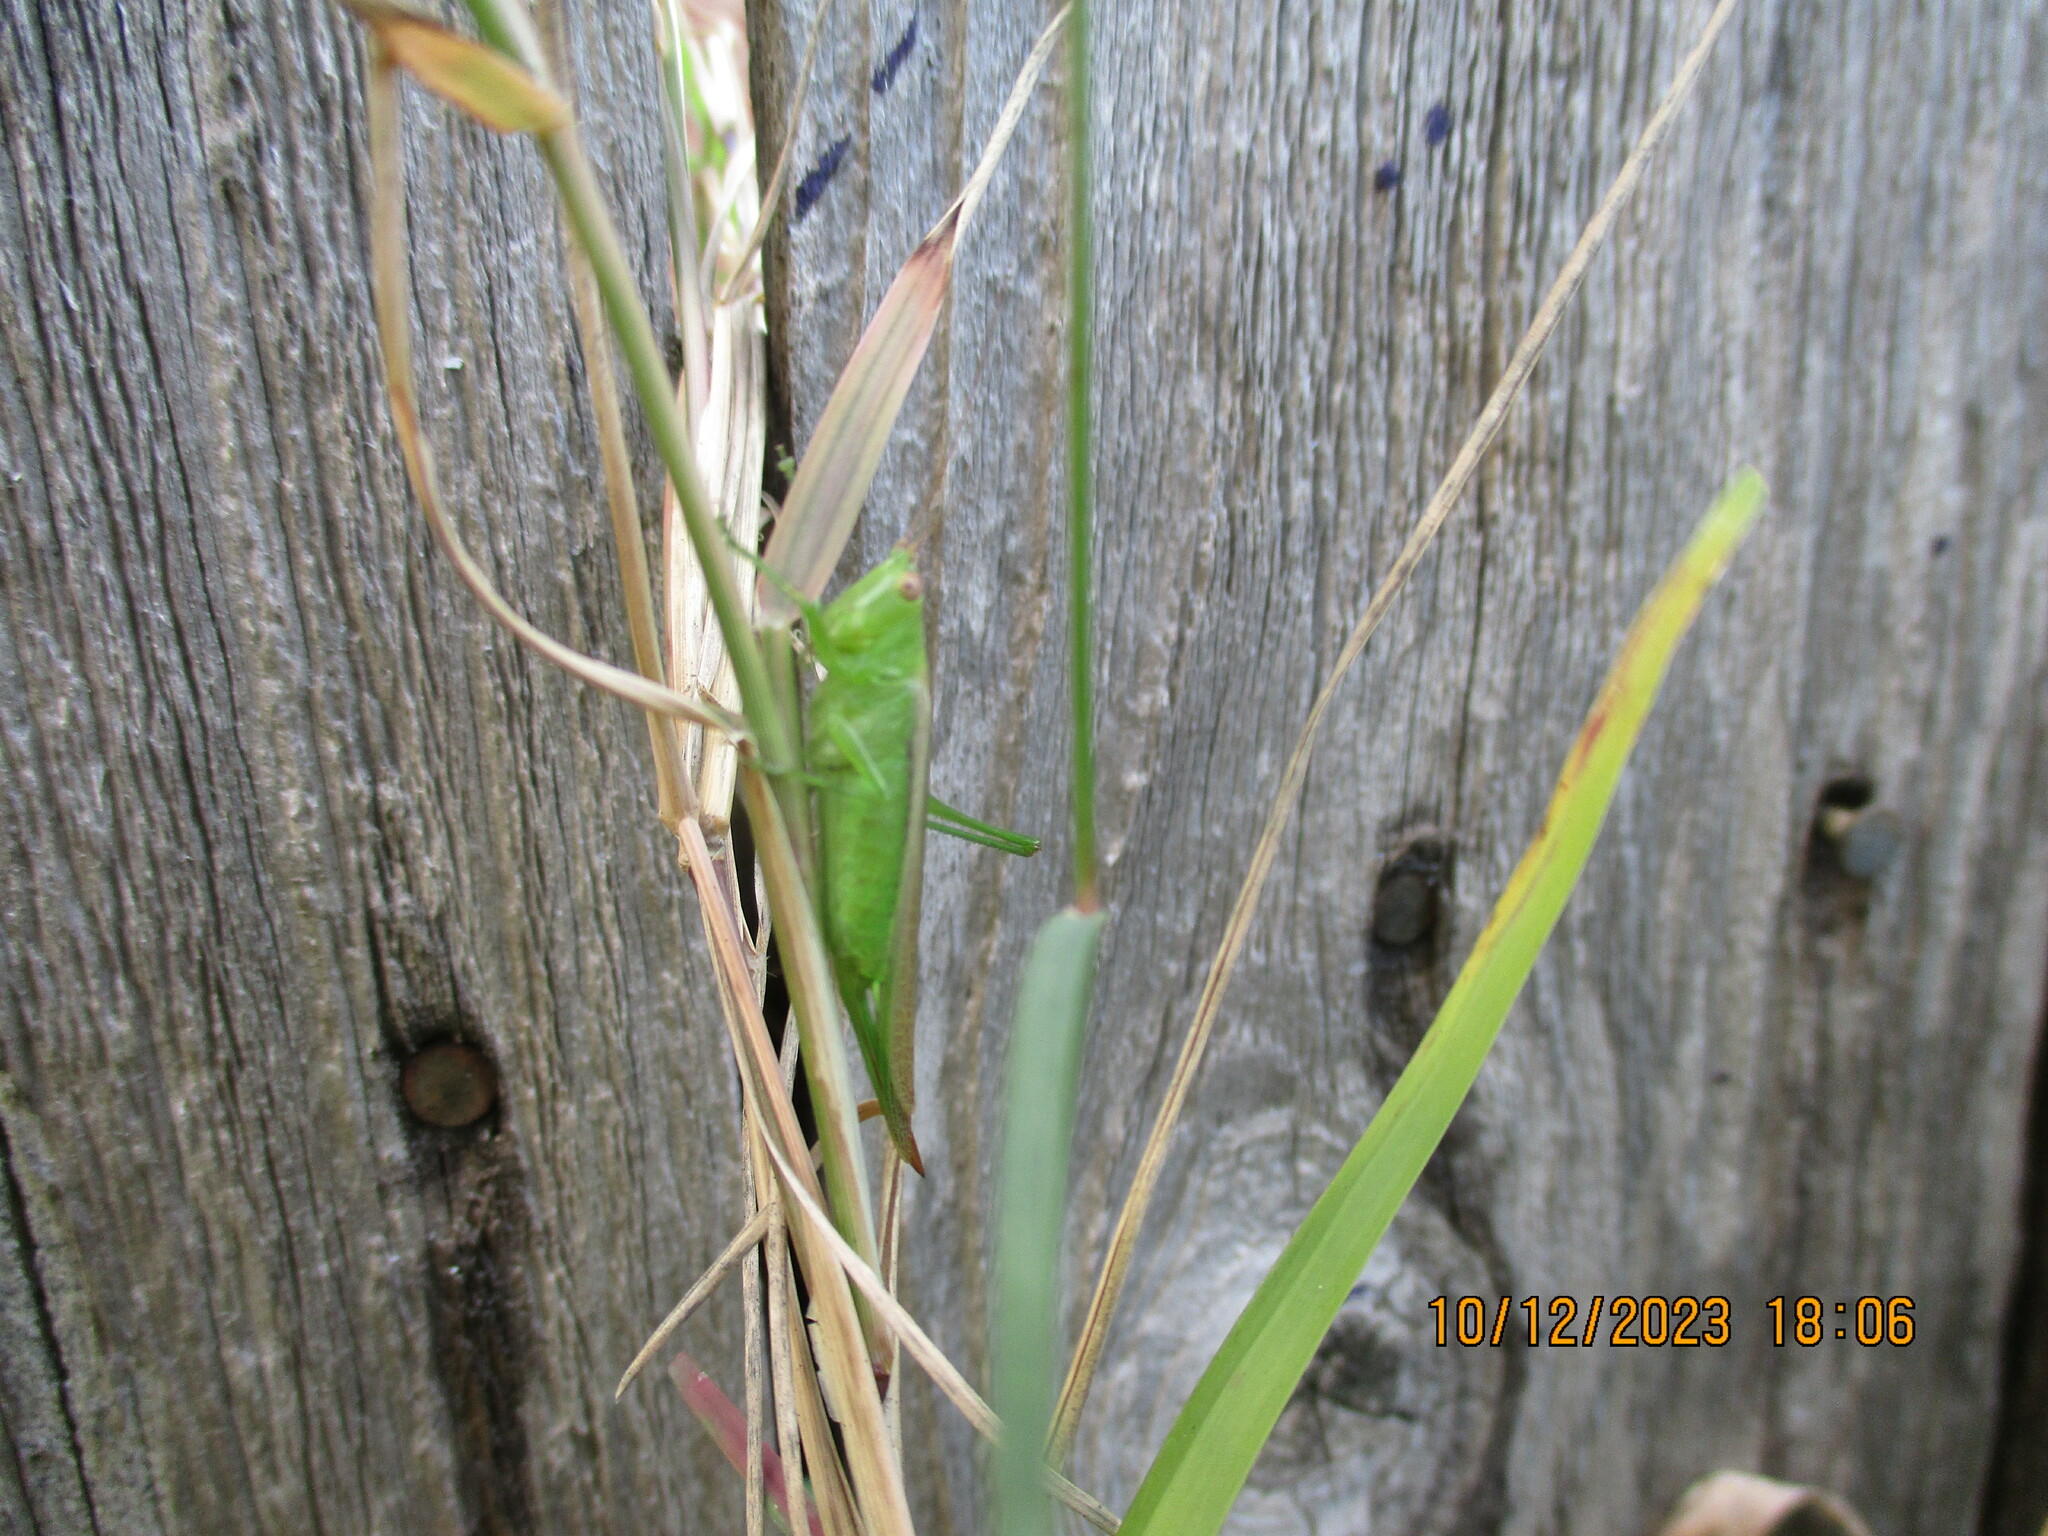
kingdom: Animalia
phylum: Arthropoda
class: Insecta
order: Orthoptera
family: Tettigoniidae
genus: Conocephalus
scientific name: Conocephalus fasciatus
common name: Slender meadow katydid
